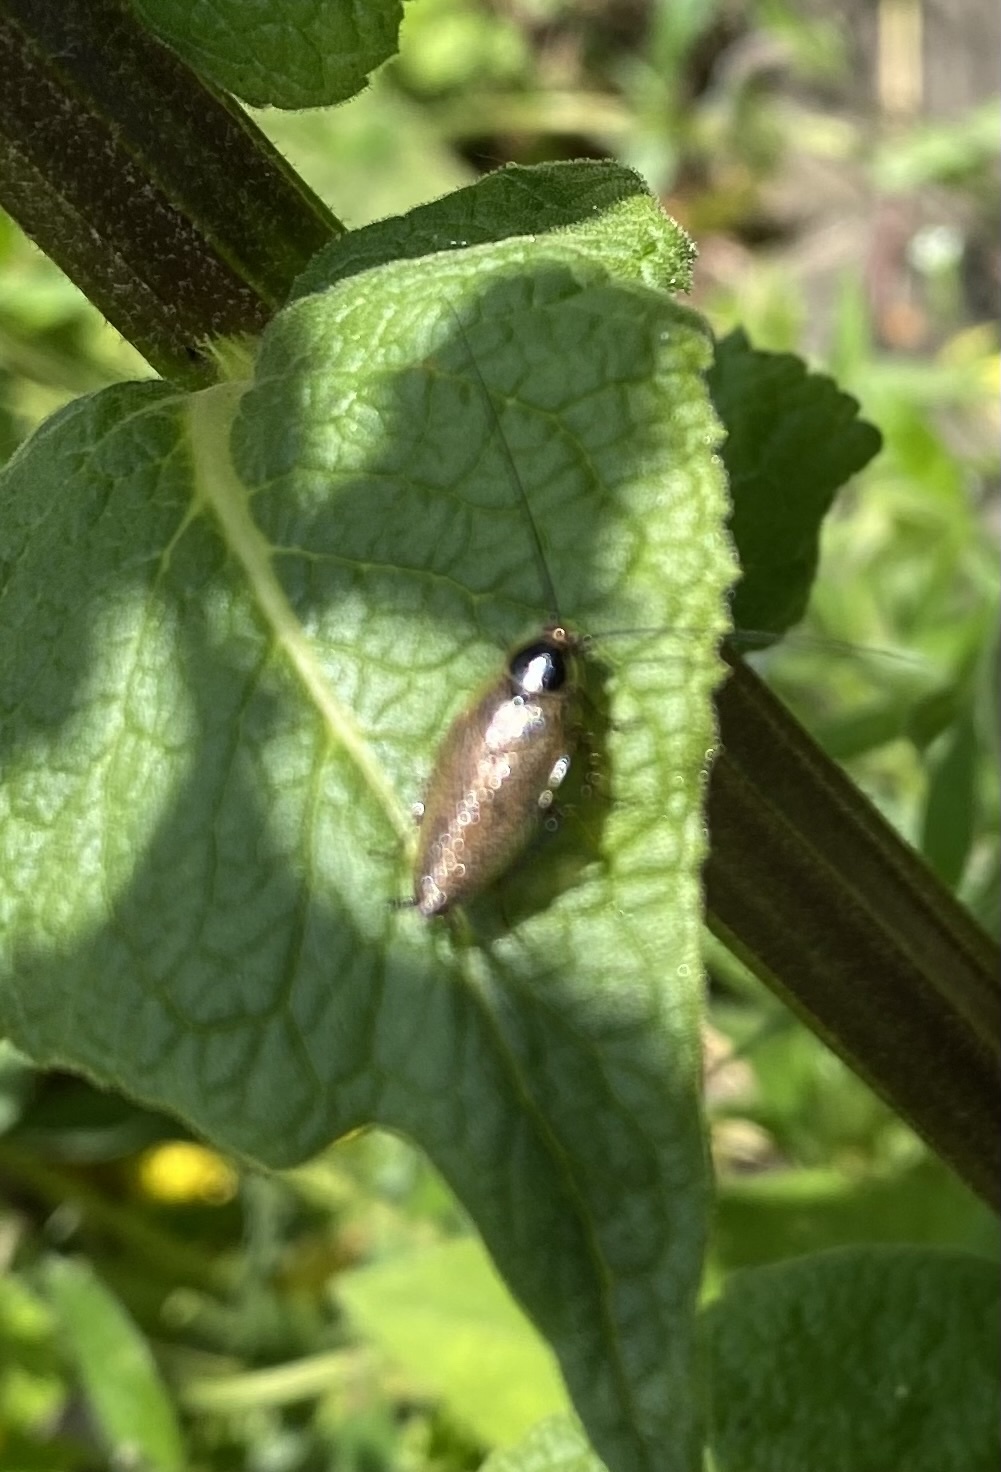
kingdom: Animalia
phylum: Arthropoda
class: Insecta
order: Blattodea
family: Ectobiidae
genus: Ectobius
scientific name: Ectobius erythronotus
